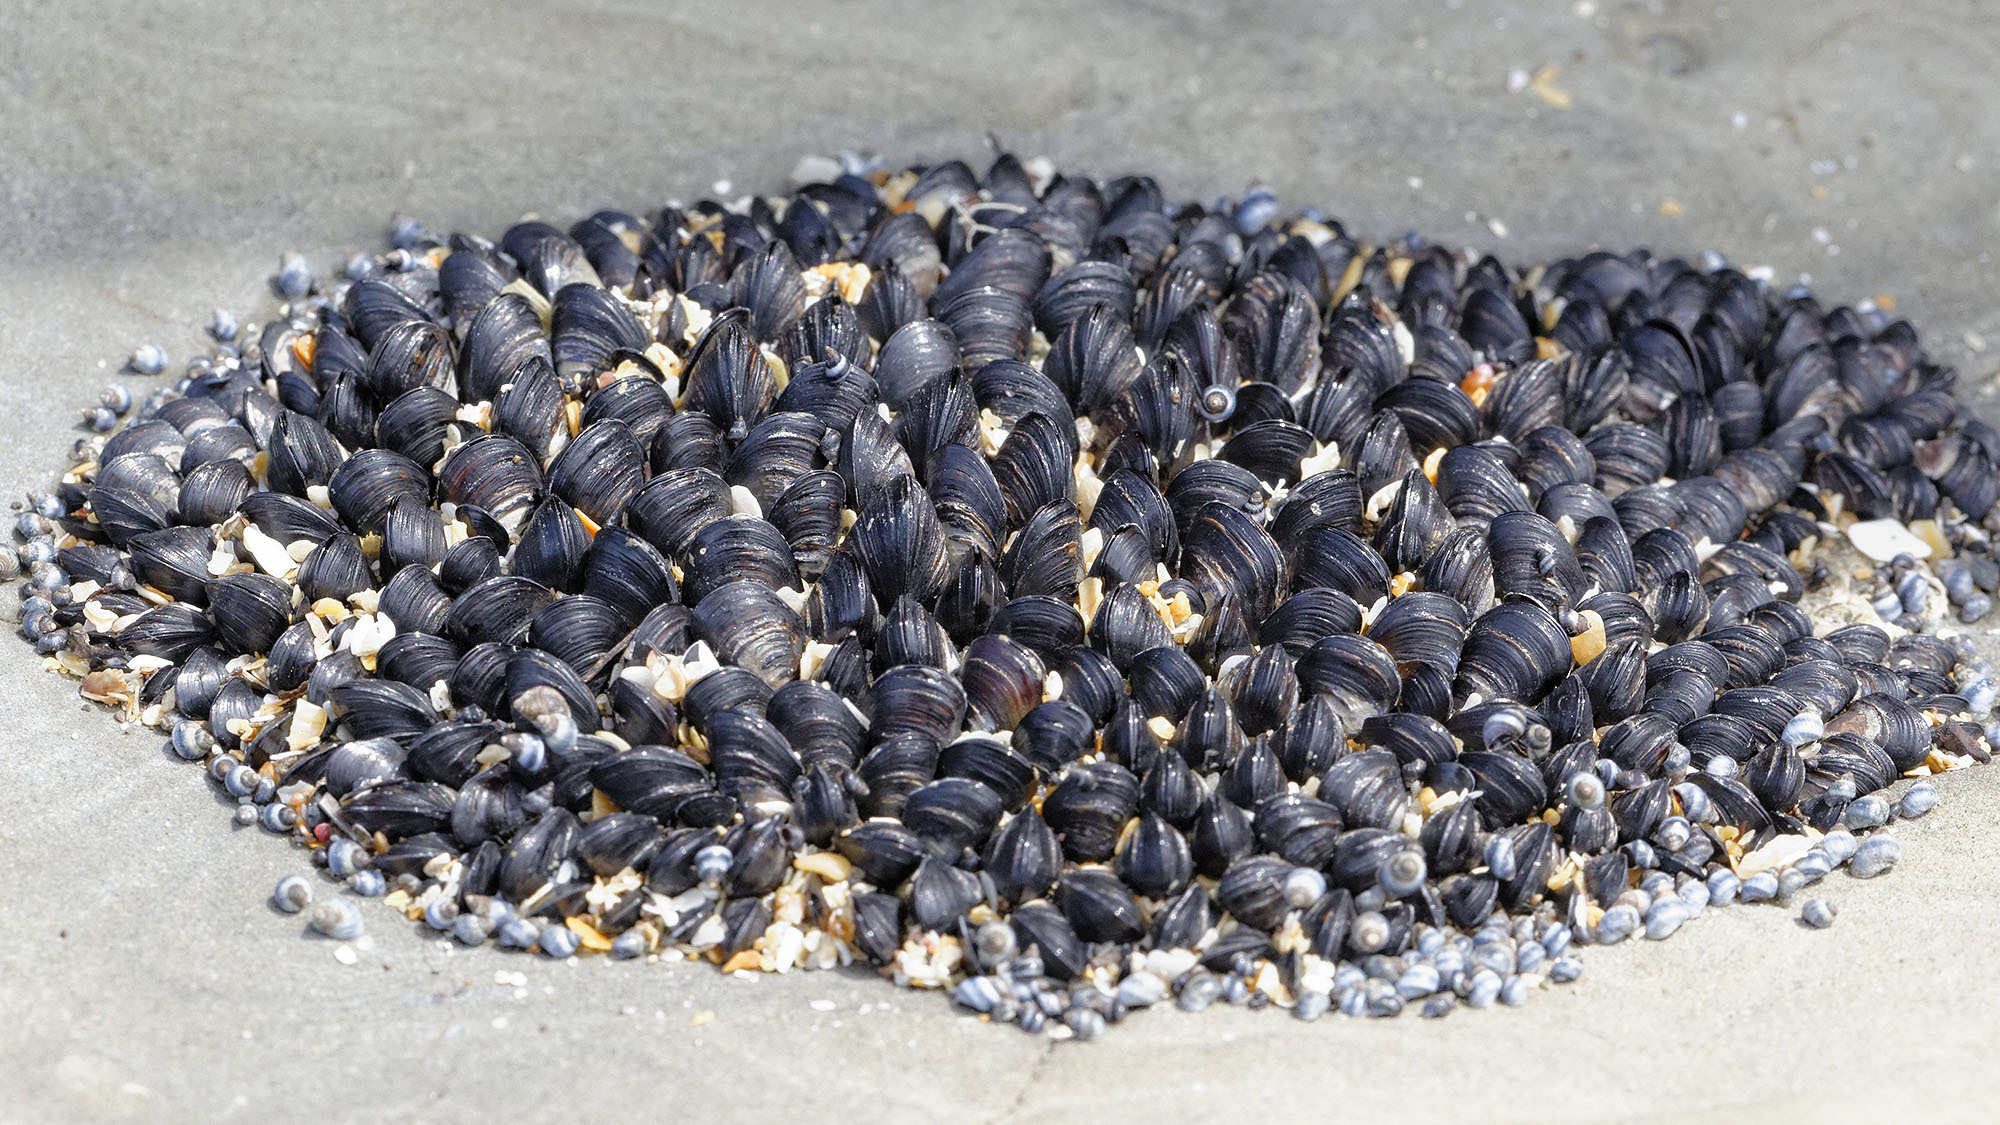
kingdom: Animalia
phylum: Mollusca
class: Bivalvia
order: Mytilida
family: Mytilidae
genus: Xenostrobus
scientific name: Xenostrobus neozelanicus
